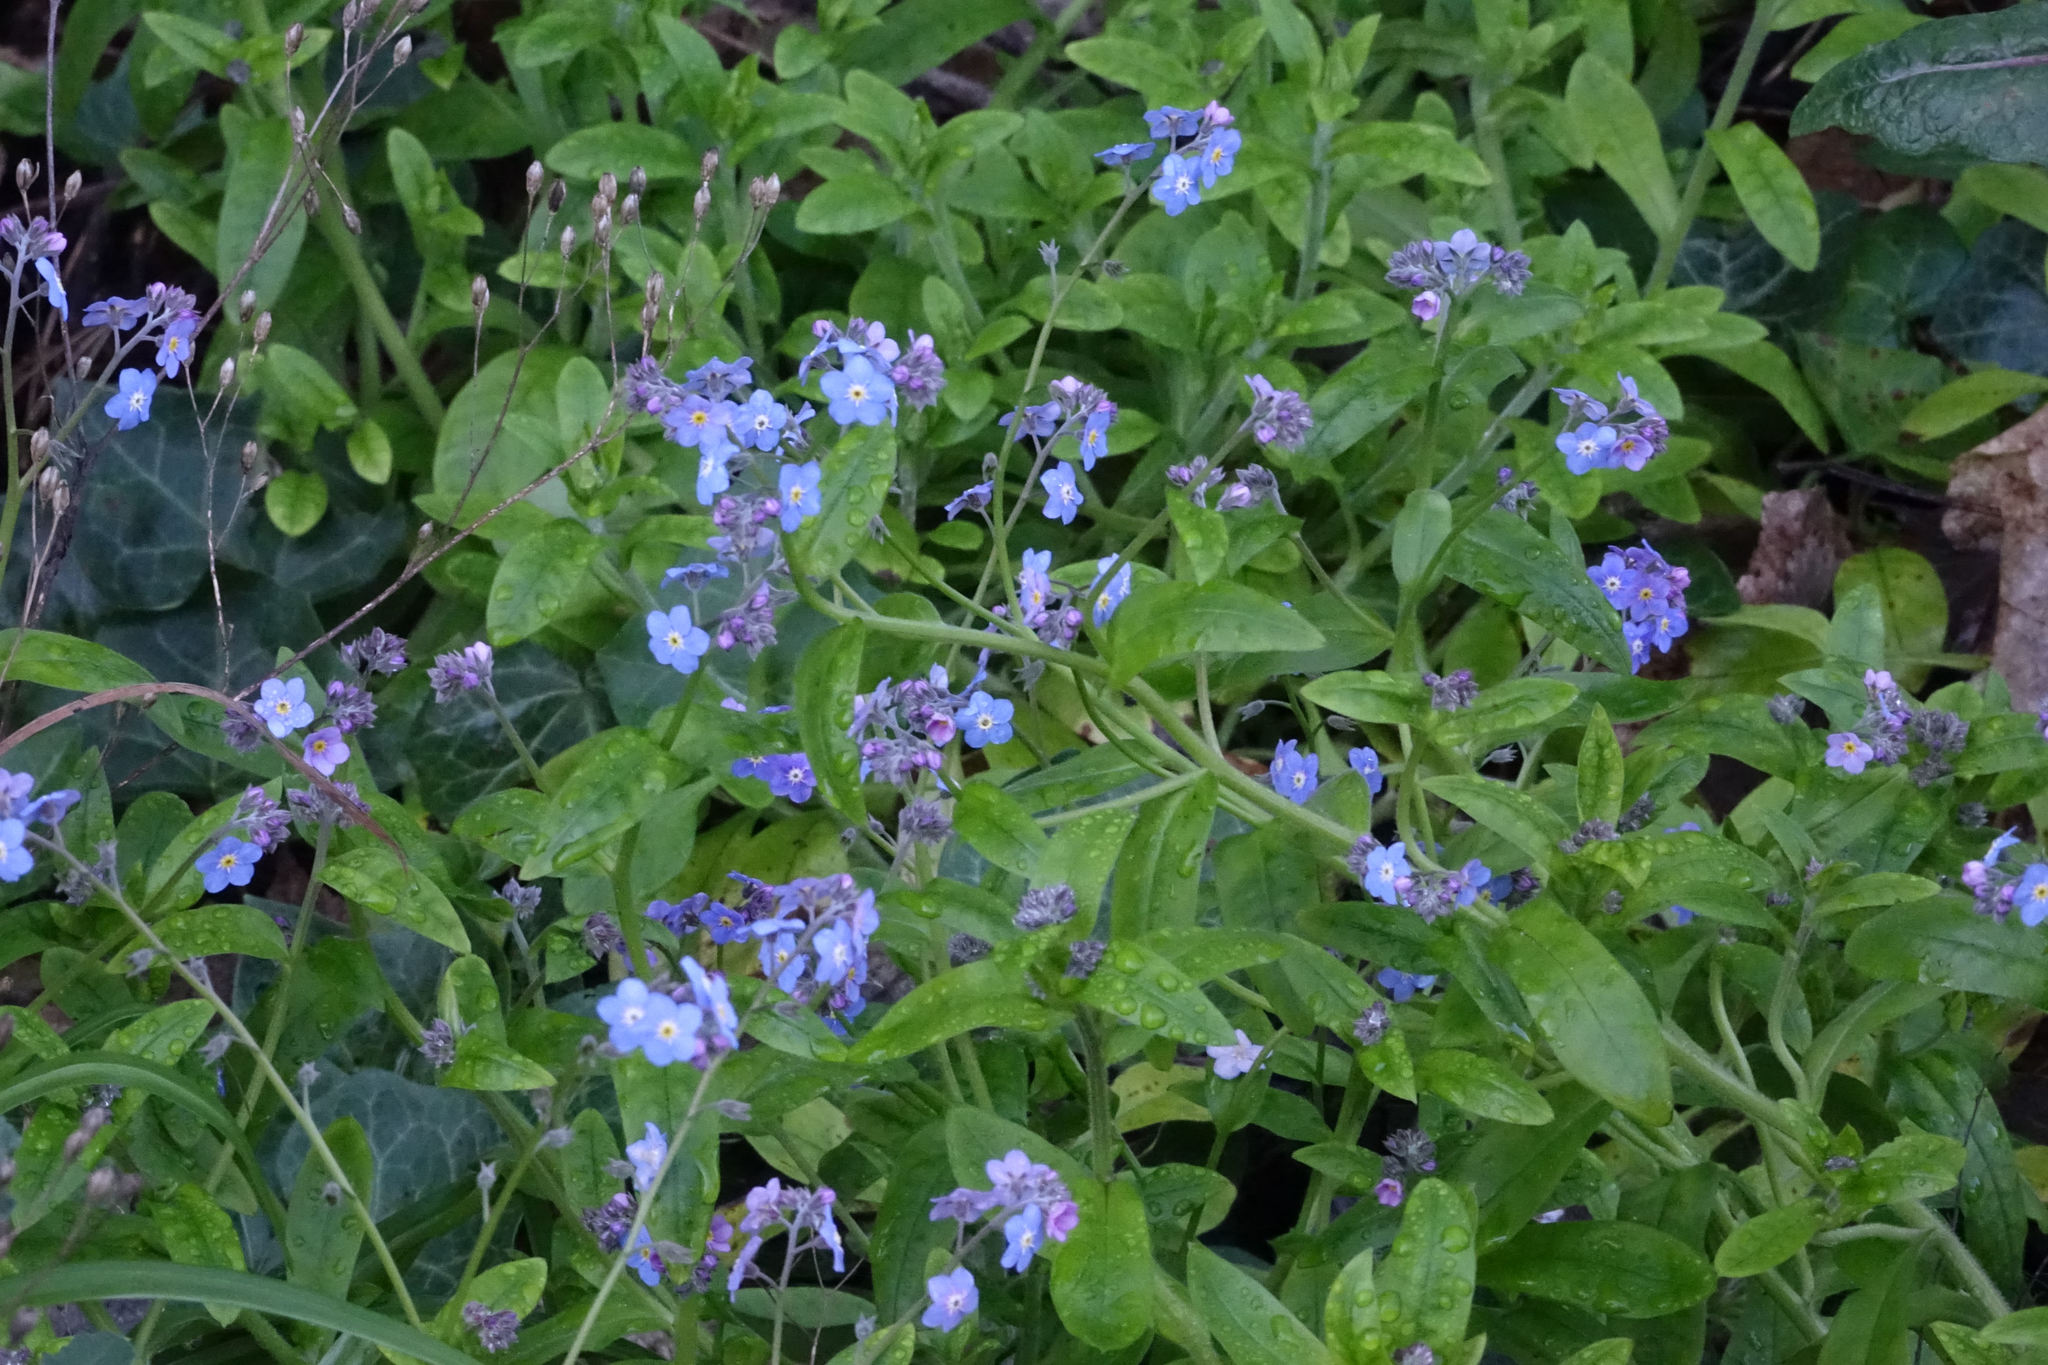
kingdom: Plantae
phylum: Tracheophyta
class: Magnoliopsida
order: Boraginales
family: Boraginaceae
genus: Myosotis
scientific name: Myosotis sylvatica
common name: Wood forget-me-not
